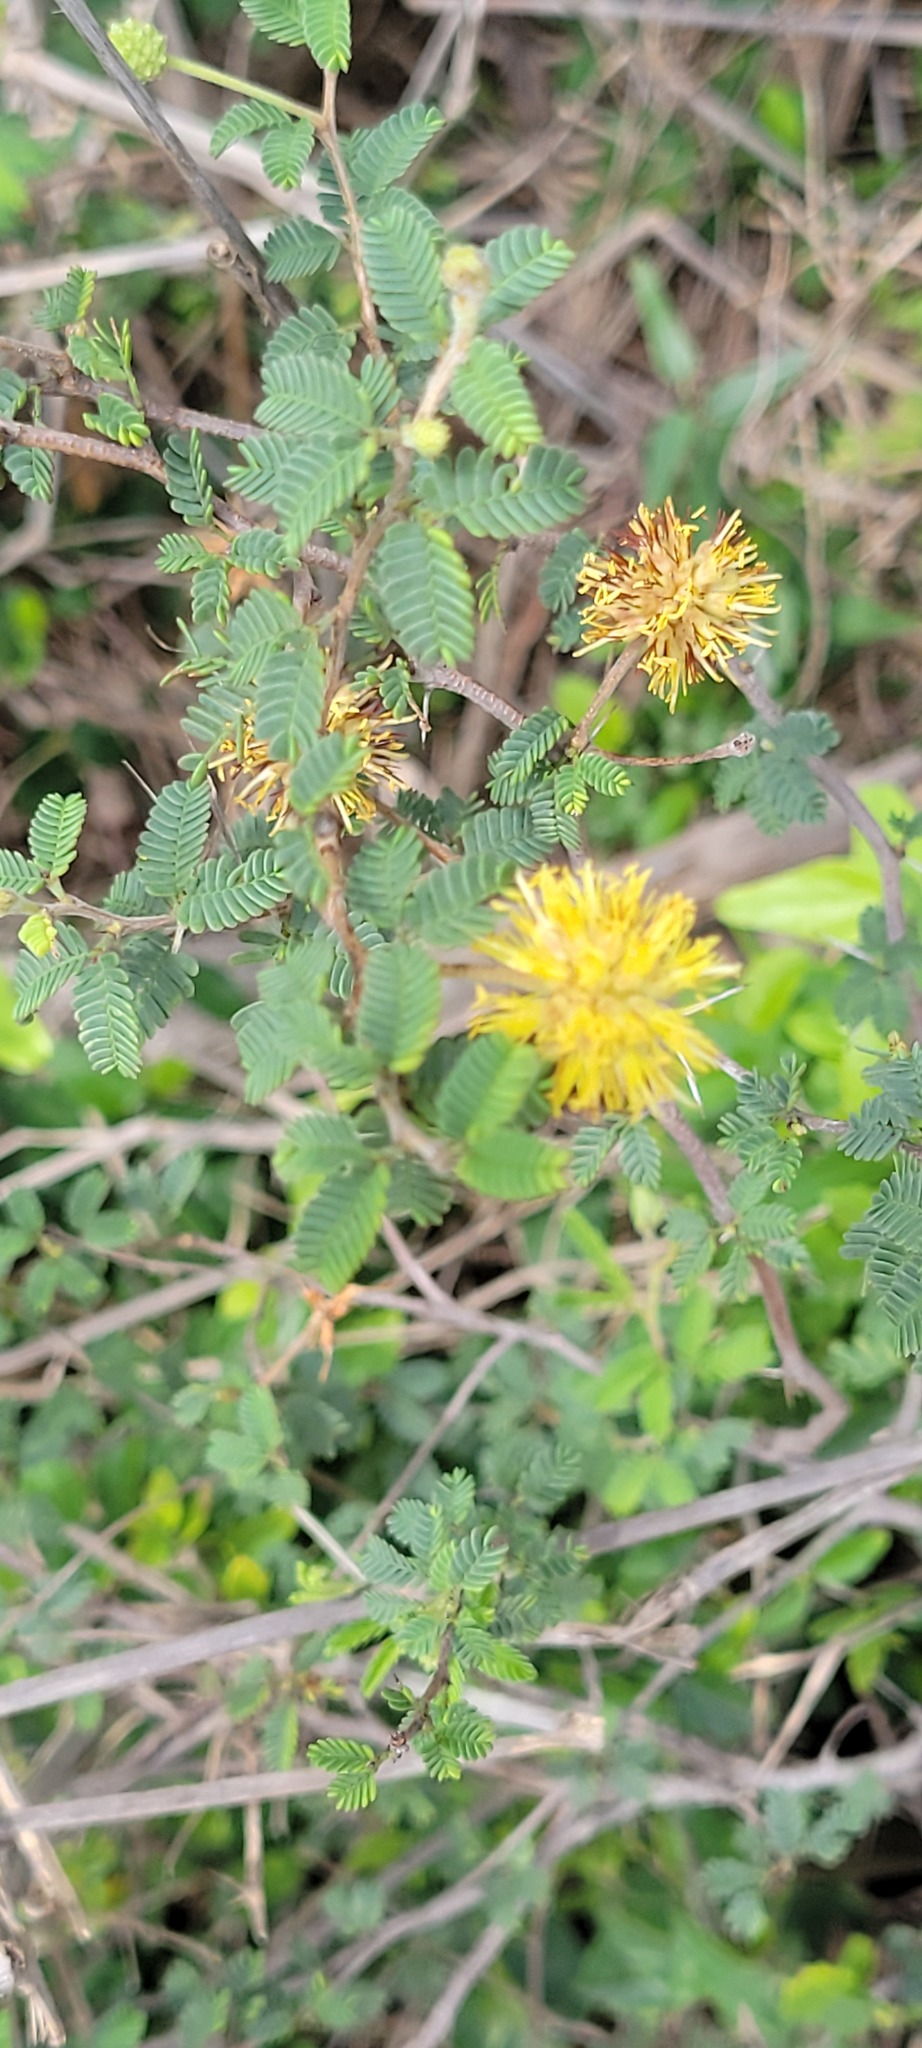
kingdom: Plantae
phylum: Tracheophyta
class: Magnoliopsida
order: Fabales
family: Fabaceae
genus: Neptunia
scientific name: Neptunia pubescens
